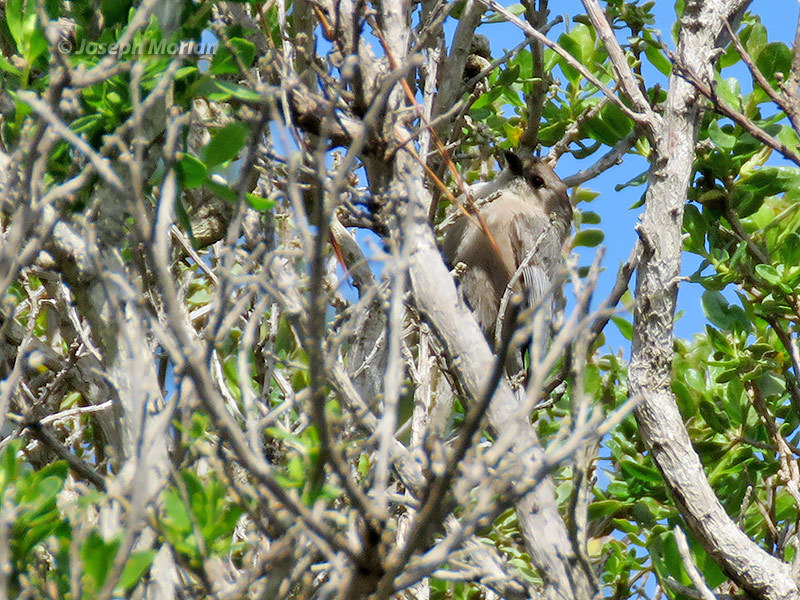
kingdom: Animalia
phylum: Chordata
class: Aves
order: Passeriformes
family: Aegithalidae
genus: Psaltriparus
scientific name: Psaltriparus minimus
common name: American bushtit
